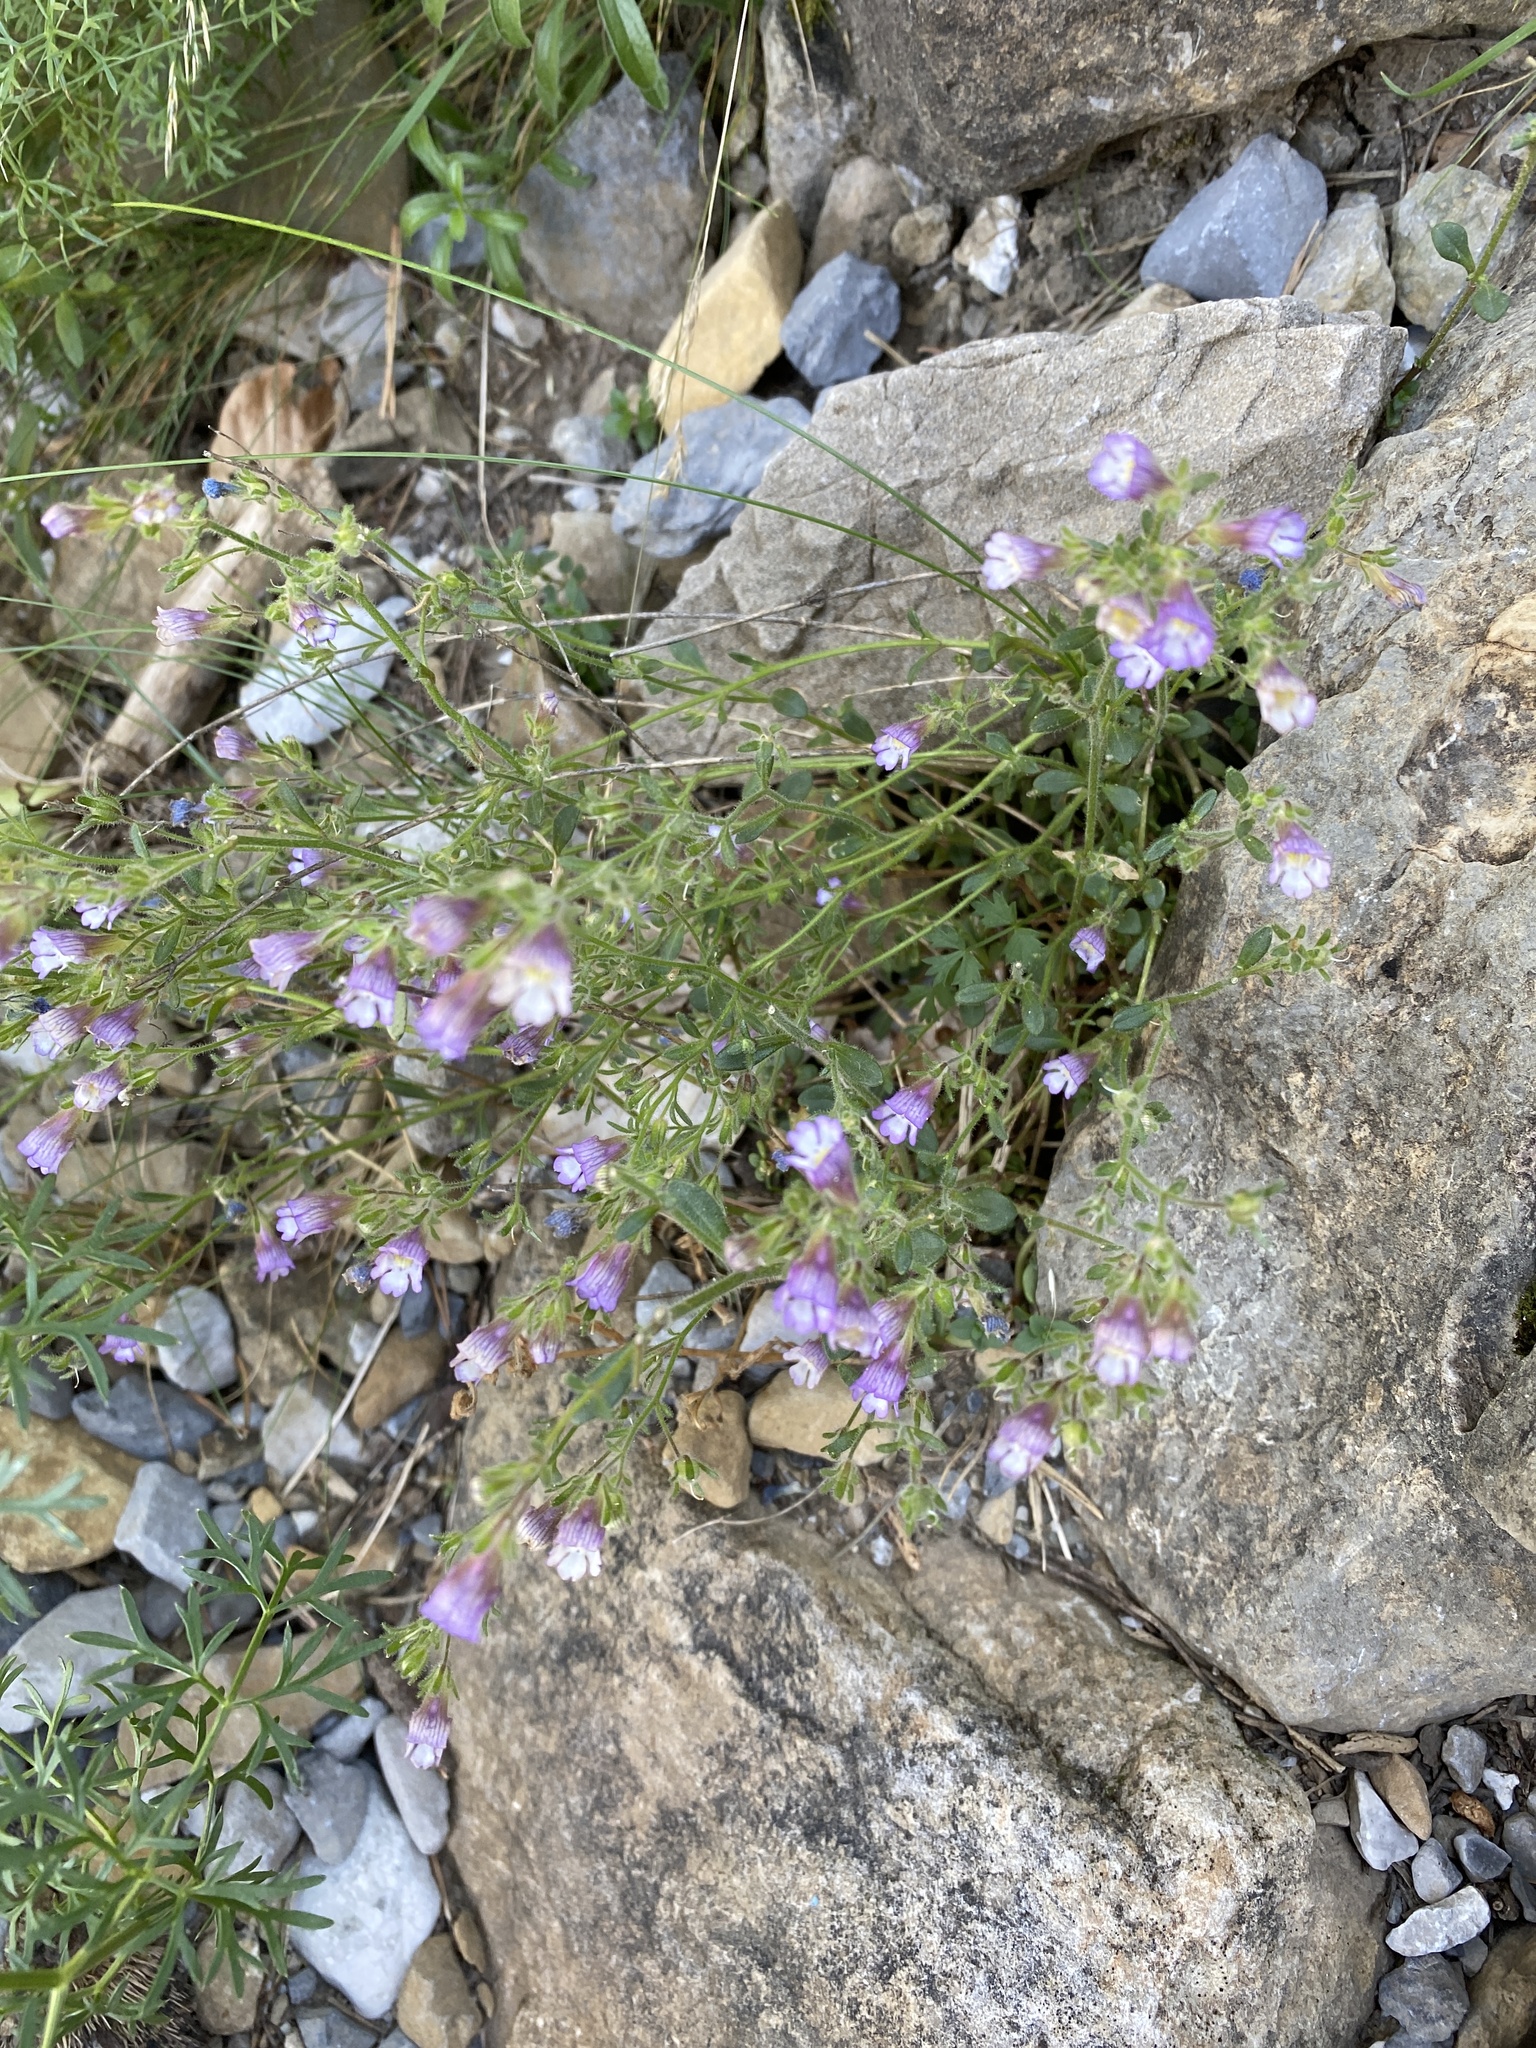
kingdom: Plantae
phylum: Tracheophyta
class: Magnoliopsida
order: Lamiales
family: Plantaginaceae
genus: Chaenorhinum
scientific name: Chaenorhinum origanifolium
